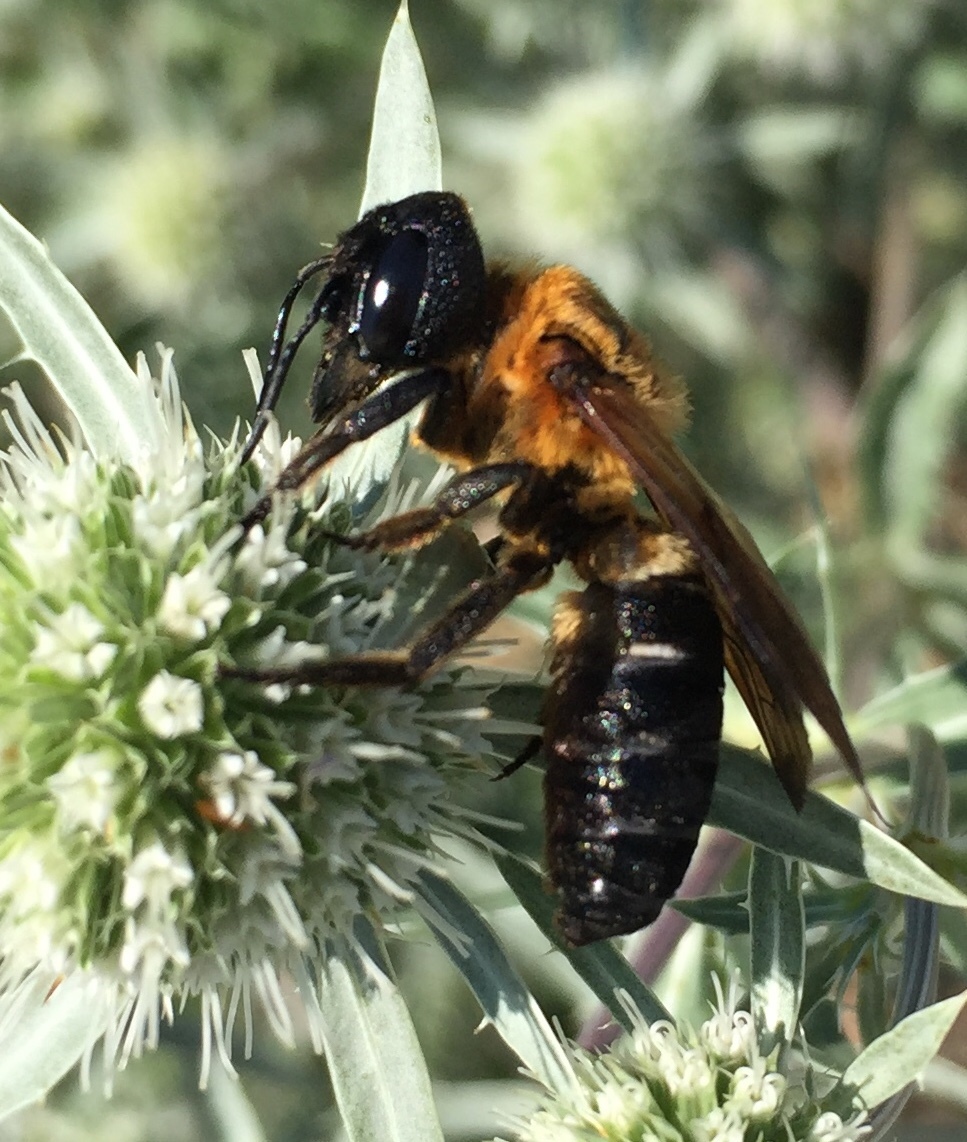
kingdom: Animalia
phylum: Arthropoda
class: Insecta
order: Hymenoptera
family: Megachilidae
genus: Megachile
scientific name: Megachile sculpturalis
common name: Sculptured resin bee
